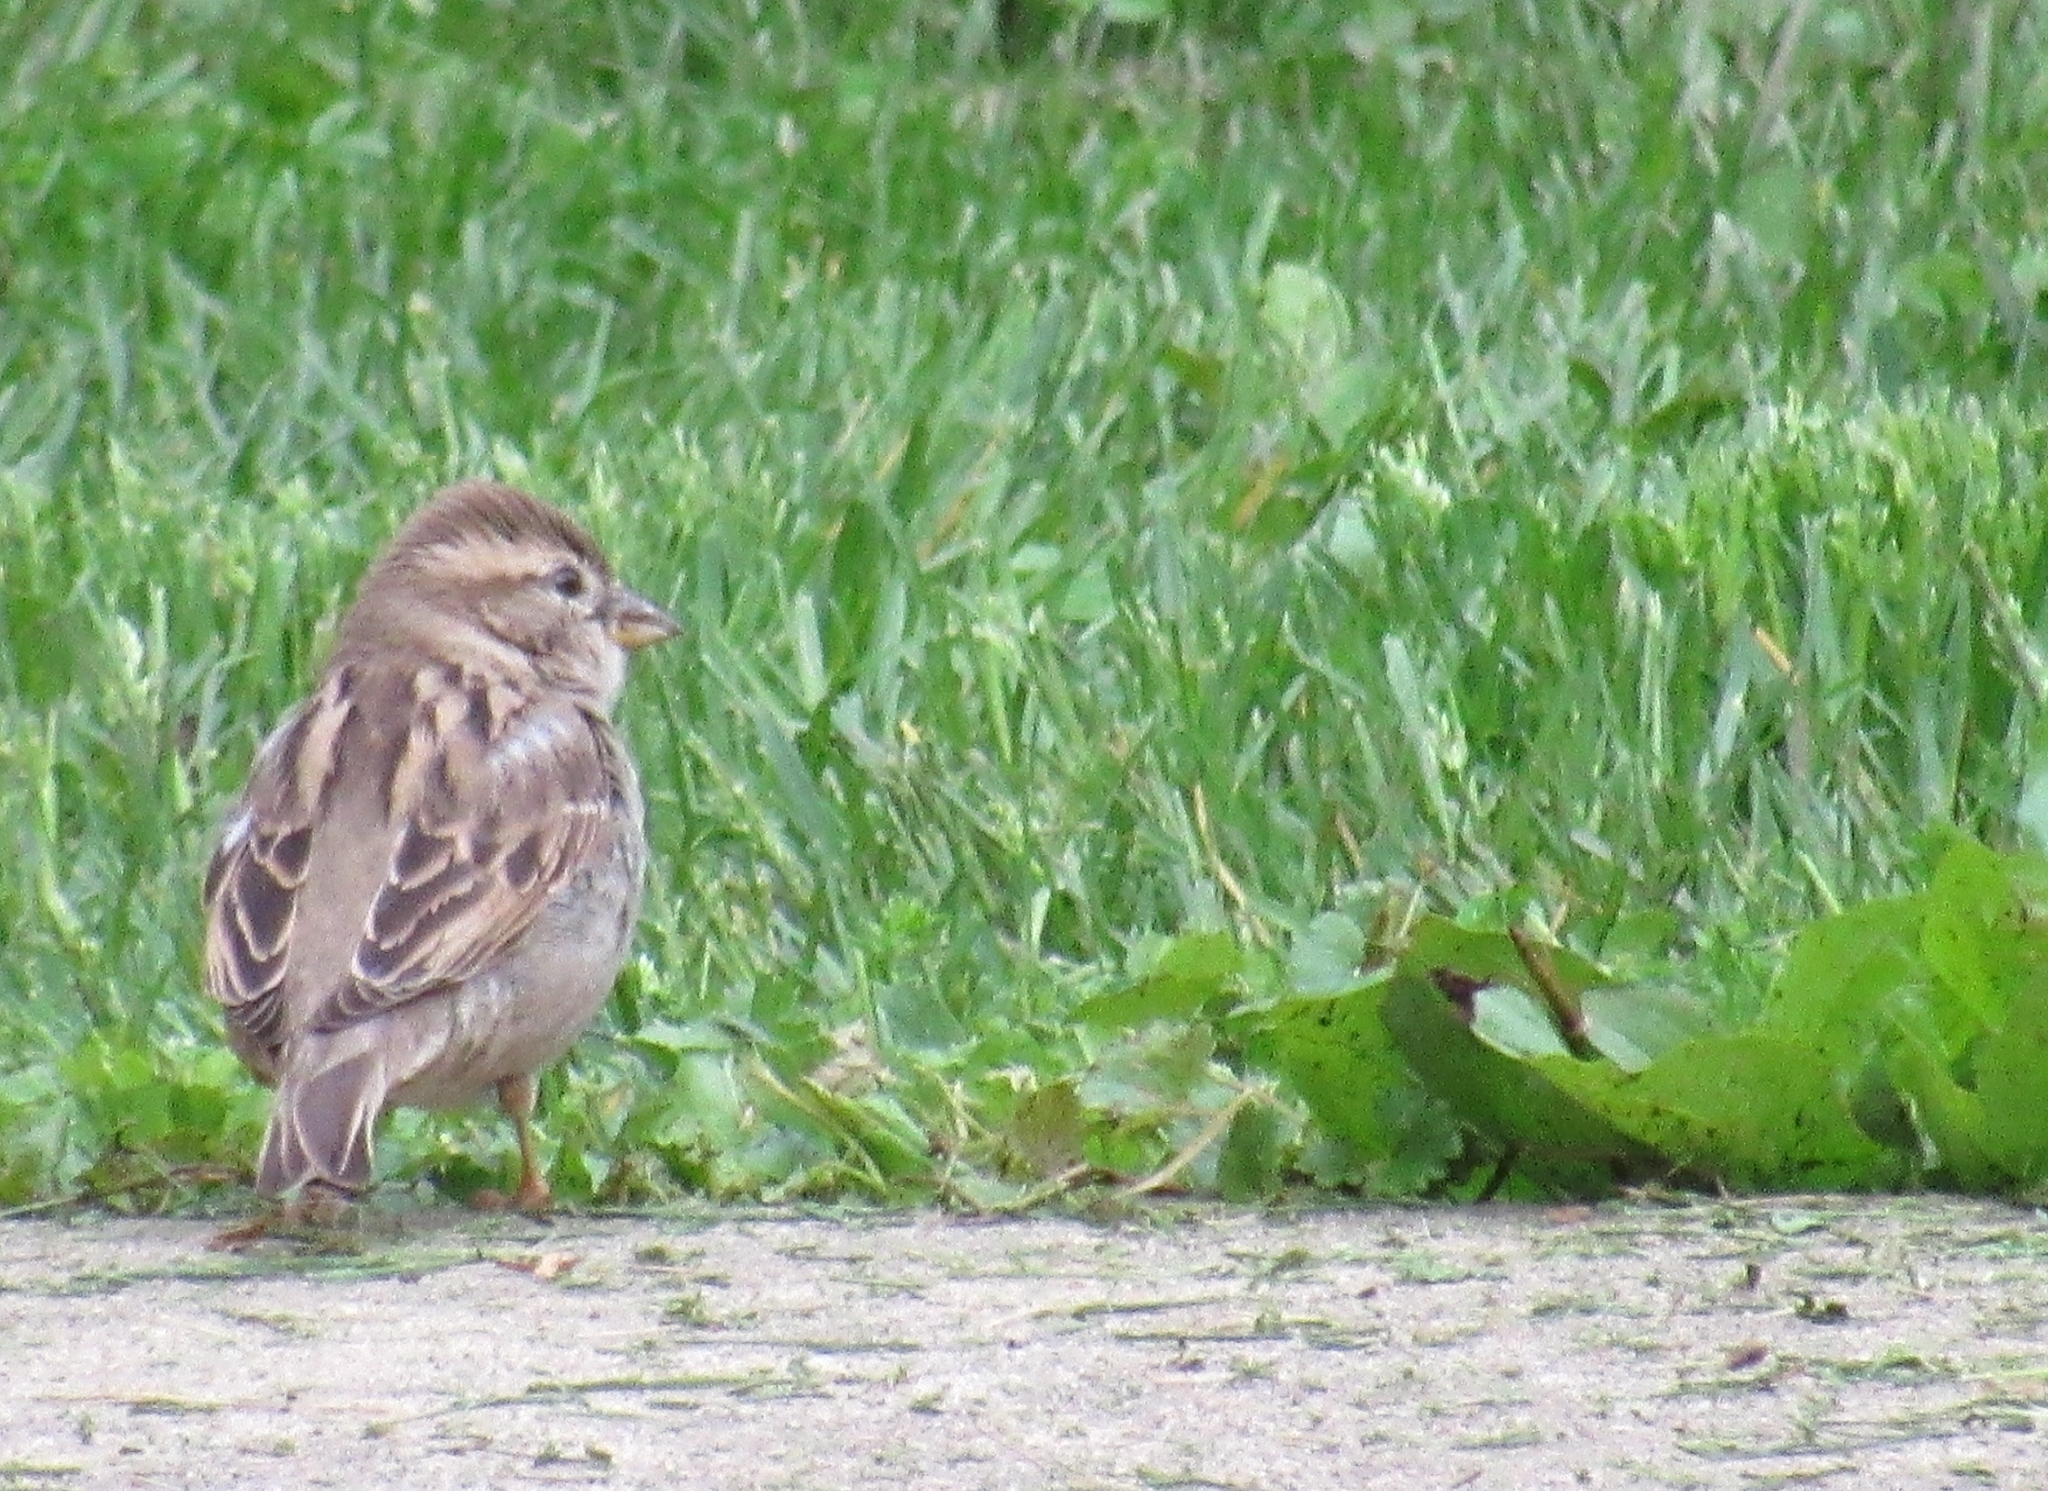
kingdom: Animalia
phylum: Chordata
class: Aves
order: Passeriformes
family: Passeridae
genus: Passer
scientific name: Passer domesticus
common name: House sparrow
